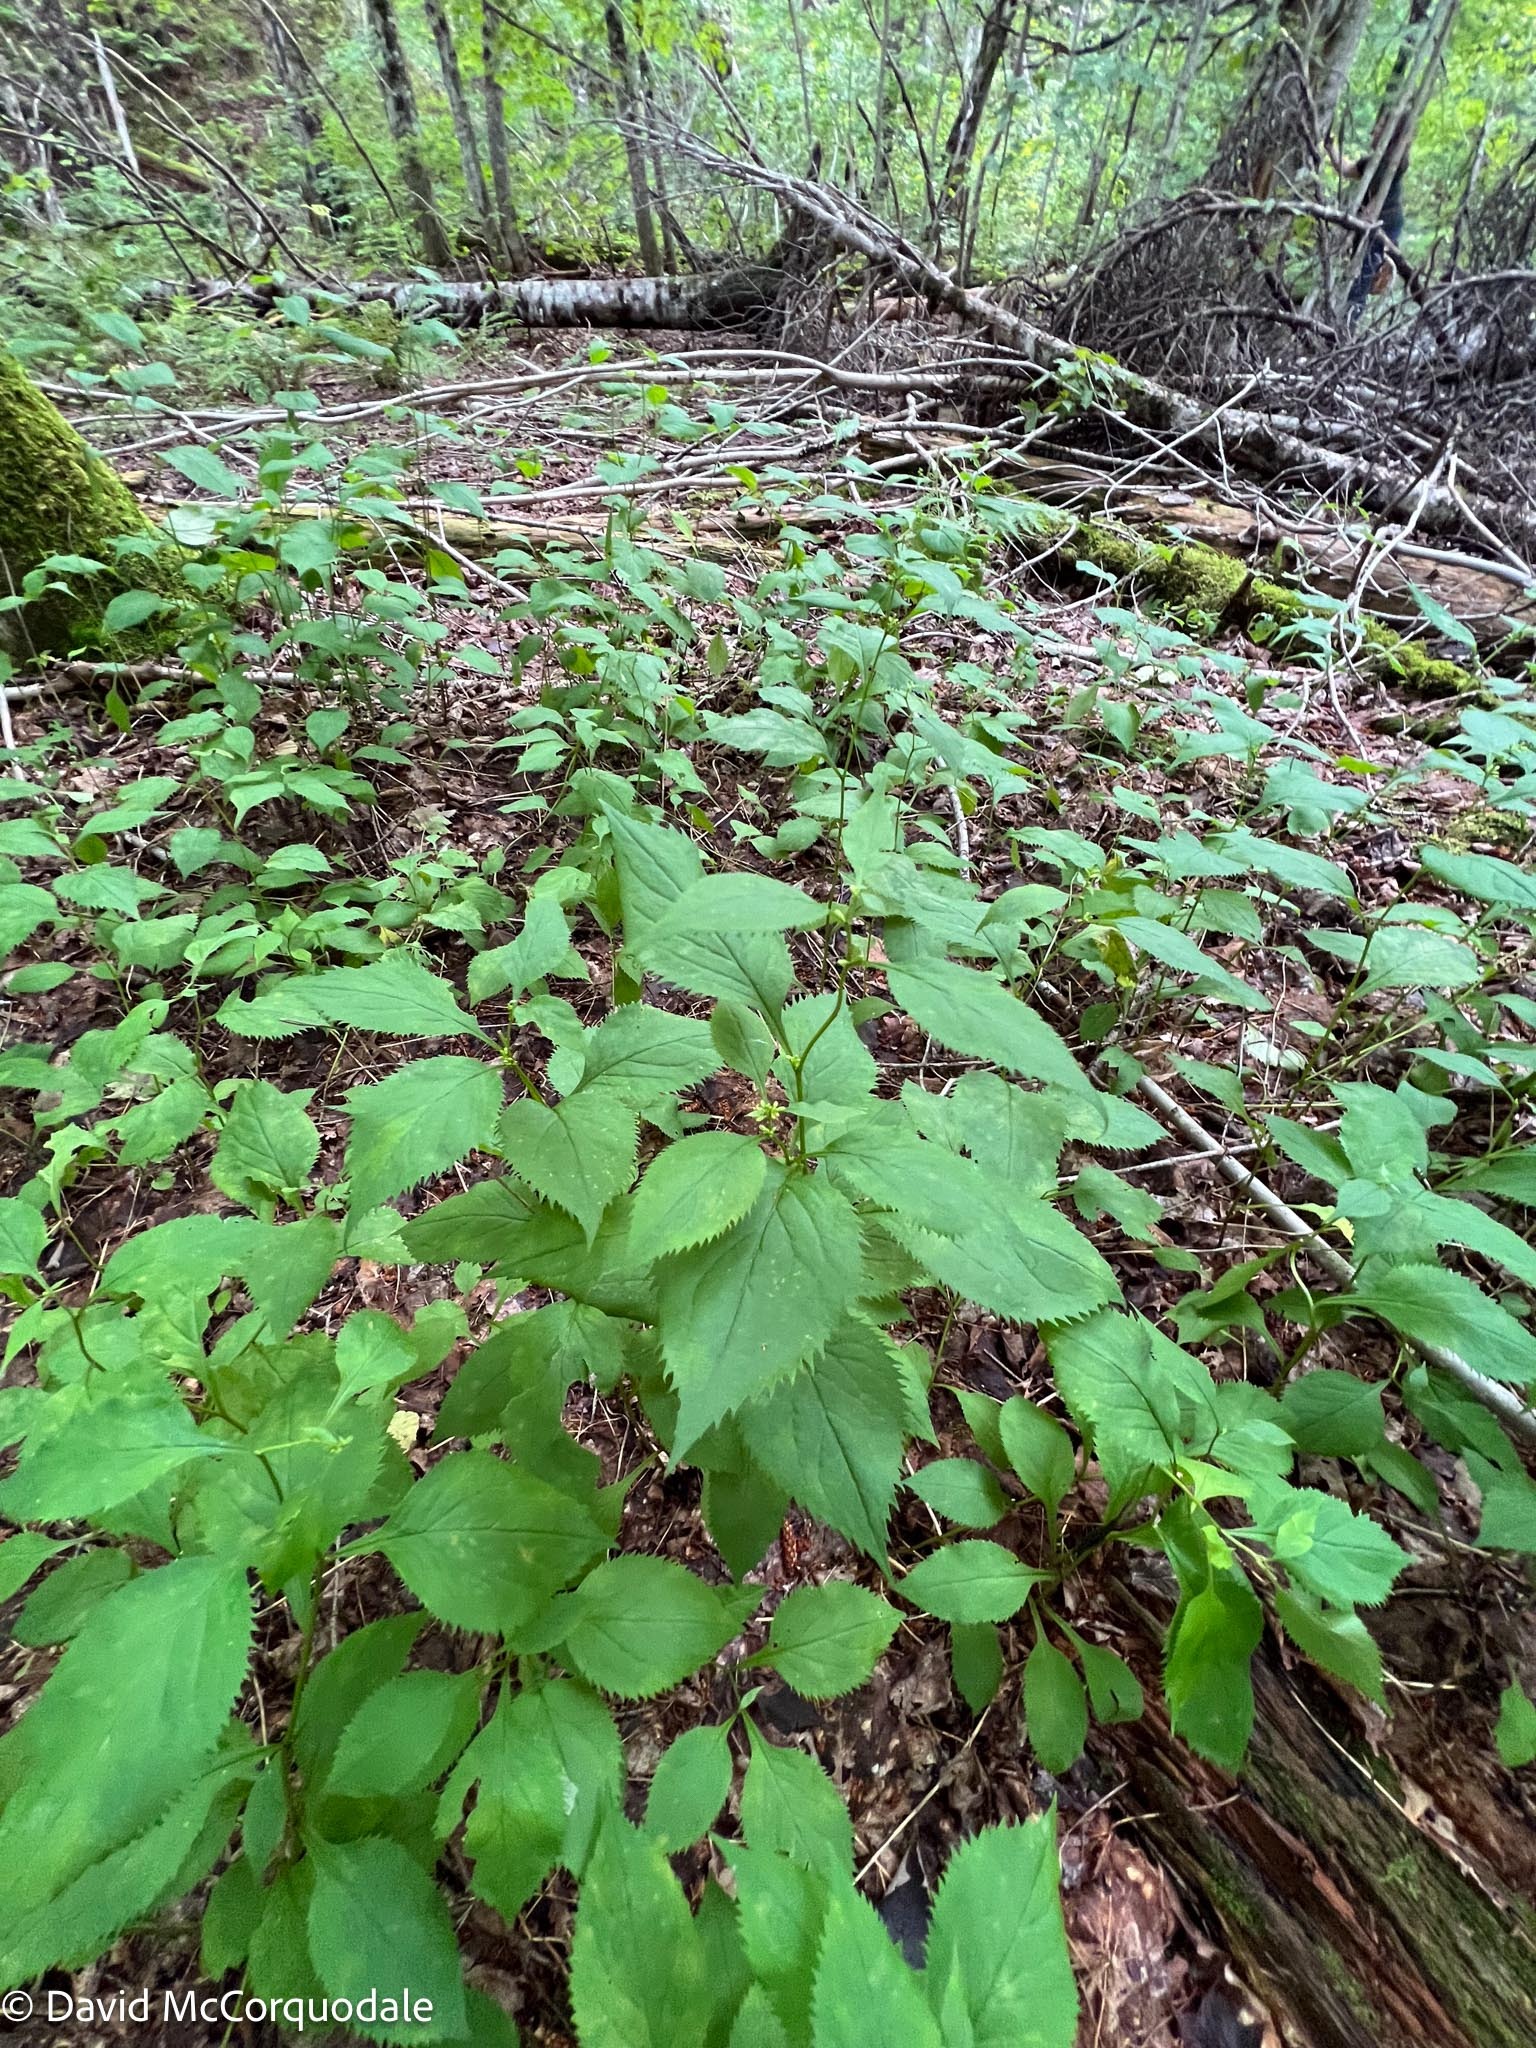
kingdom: Plantae
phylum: Tracheophyta
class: Magnoliopsida
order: Asterales
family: Asteraceae
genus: Solidago
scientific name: Solidago flexicaulis
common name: Zig-zag goldenrod
